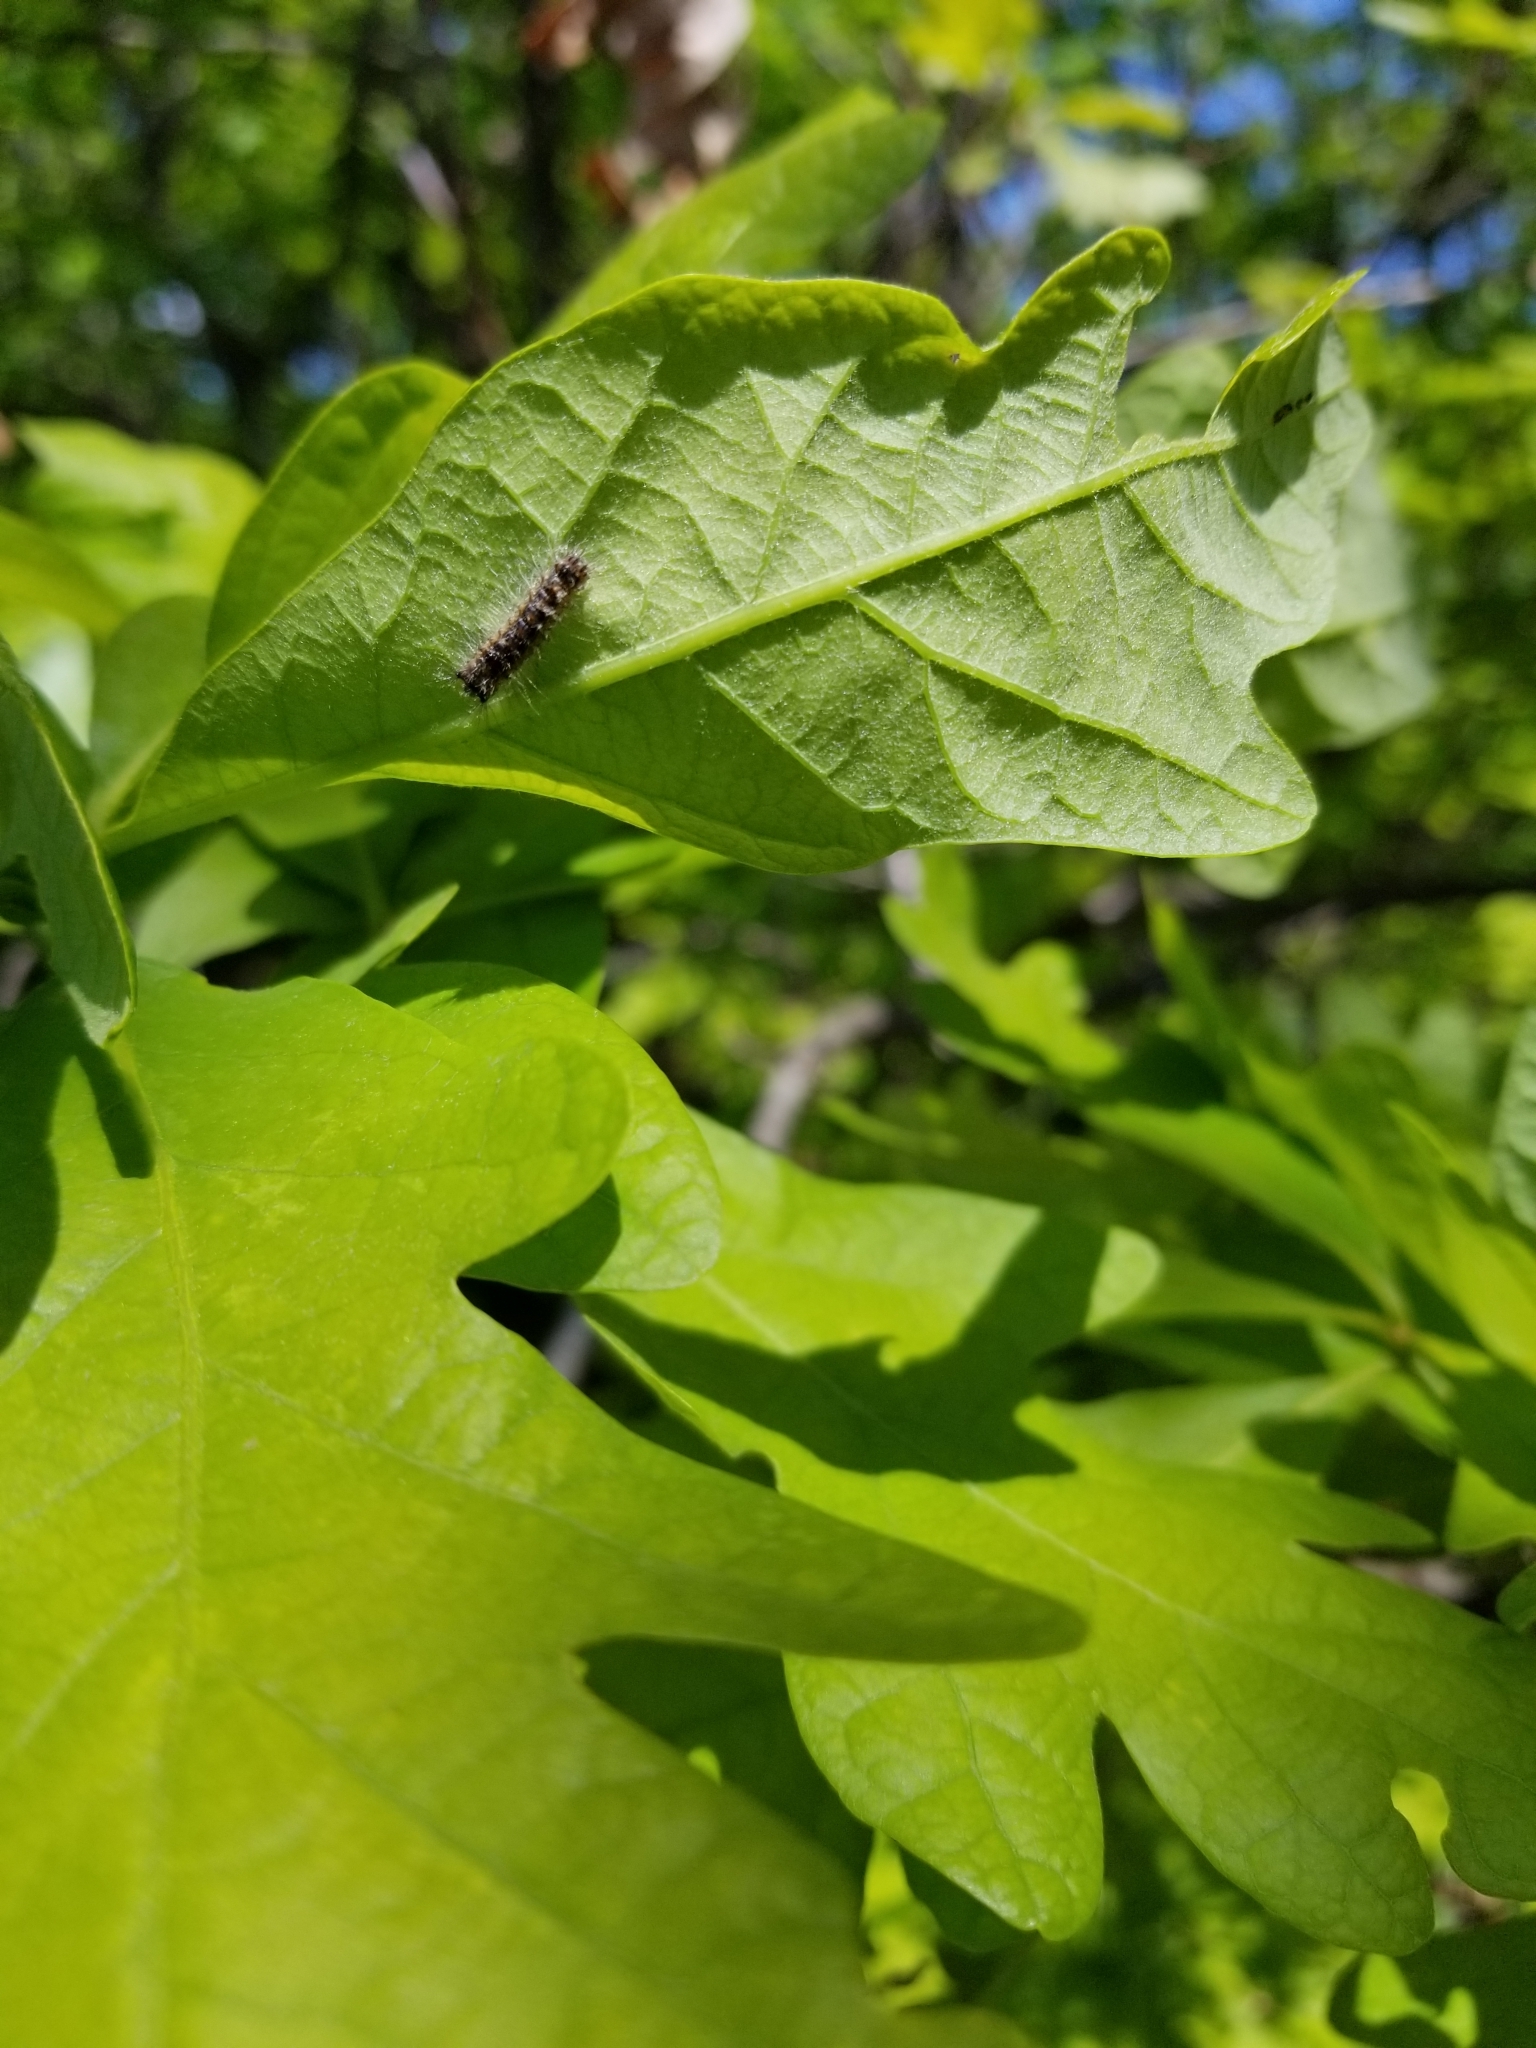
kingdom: Plantae
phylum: Tracheophyta
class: Magnoliopsida
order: Fagales
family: Fagaceae
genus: Quercus
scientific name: Quercus alba
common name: White oak
